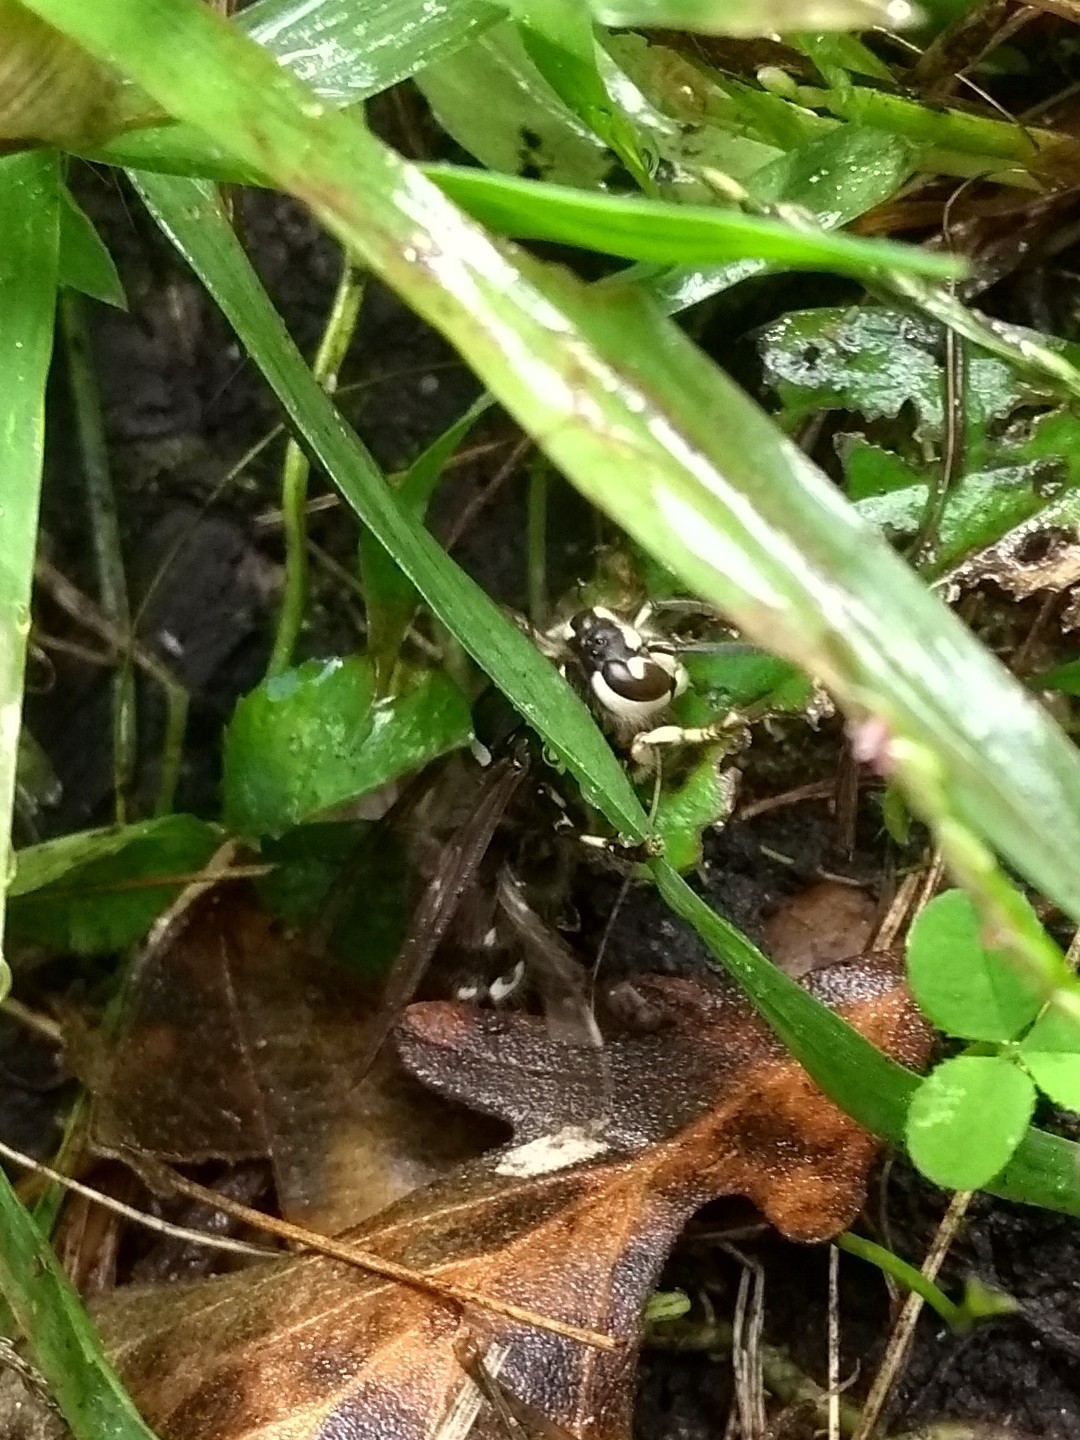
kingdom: Animalia
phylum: Arthropoda
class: Insecta
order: Hymenoptera
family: Vespidae
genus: Dolichovespula
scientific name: Dolichovespula maculata
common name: Bald-faced hornet
